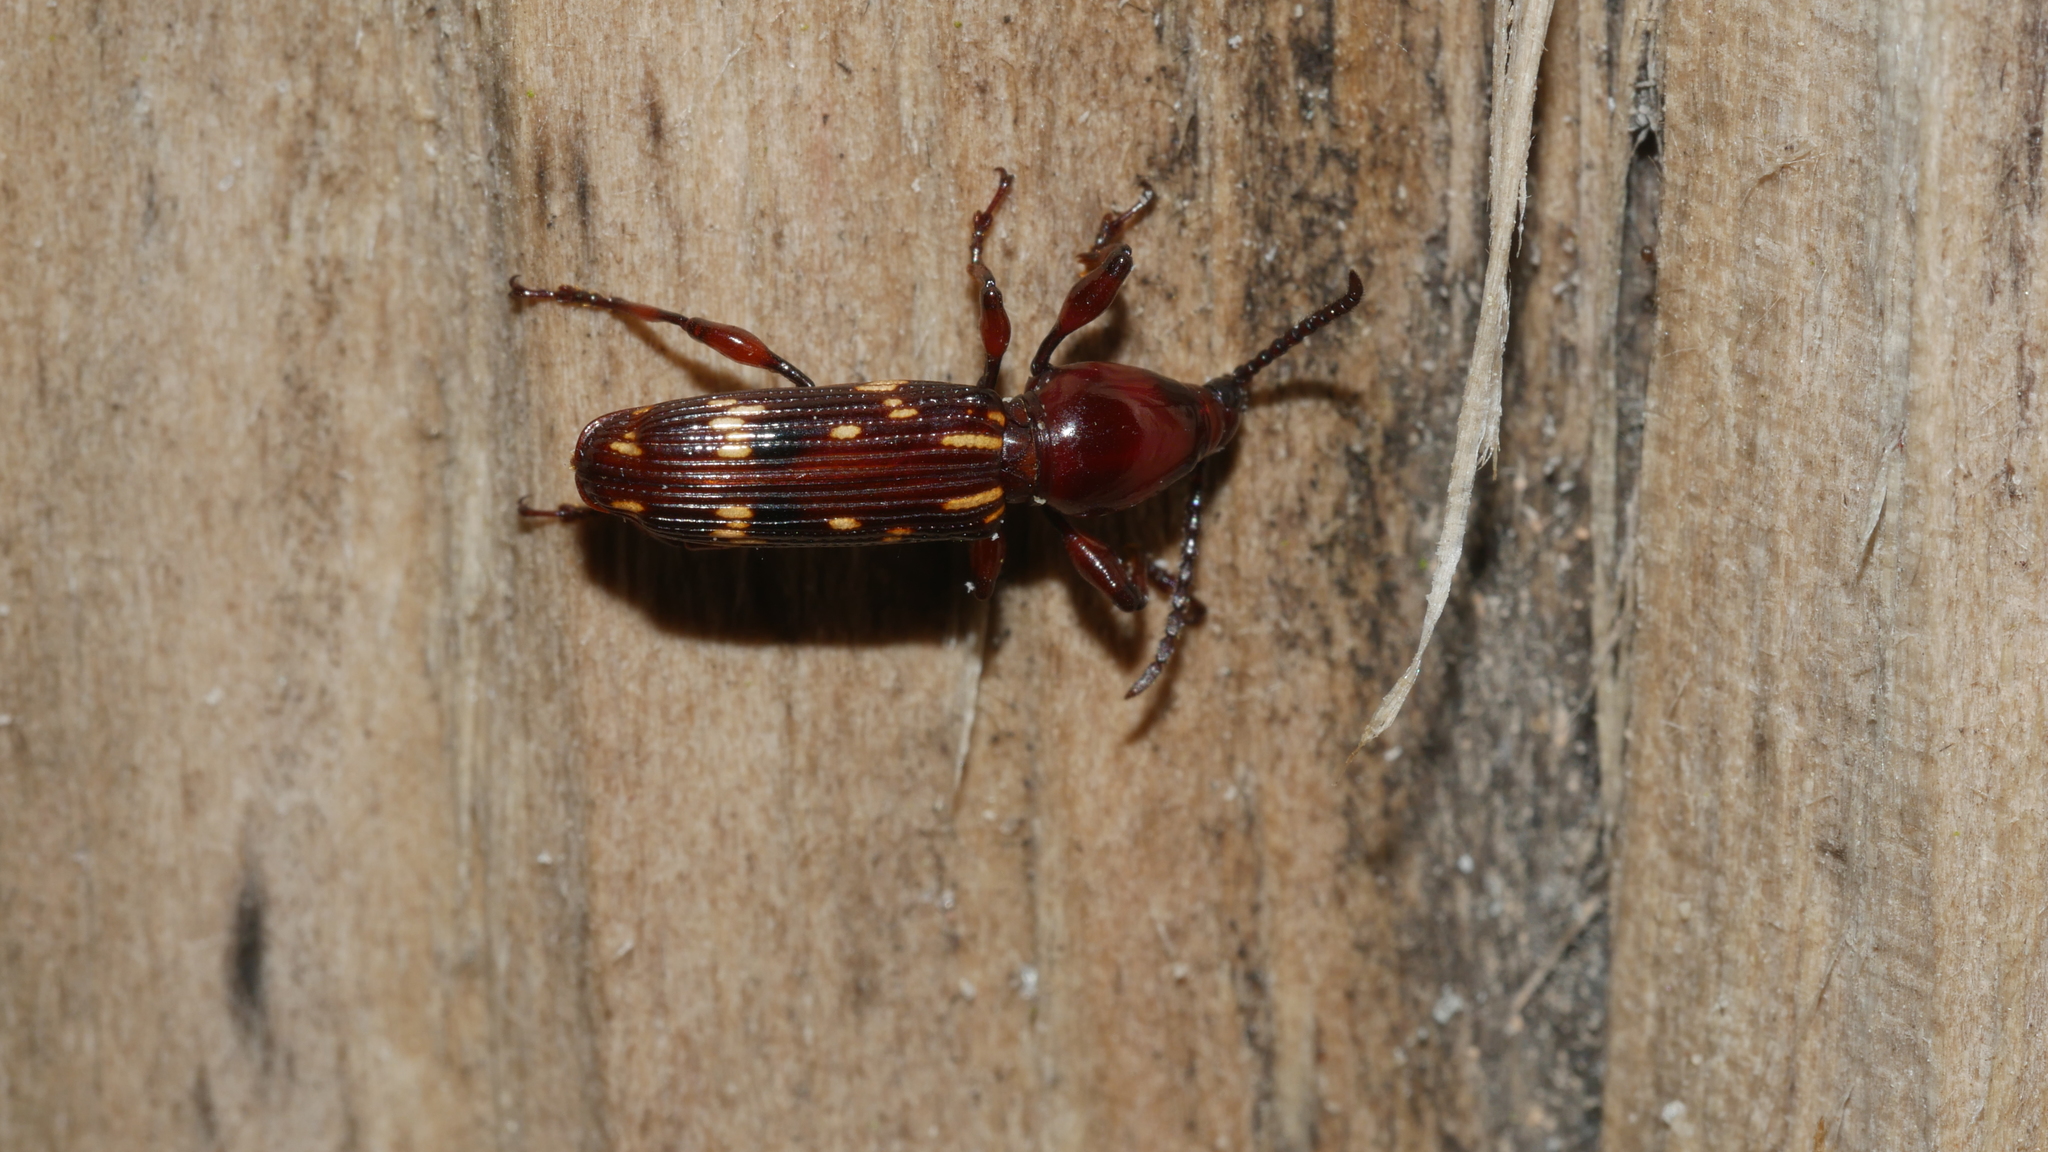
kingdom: Animalia
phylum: Arthropoda
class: Insecta
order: Coleoptera
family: Brentidae
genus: Arrenodes
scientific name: Arrenodes minutus
